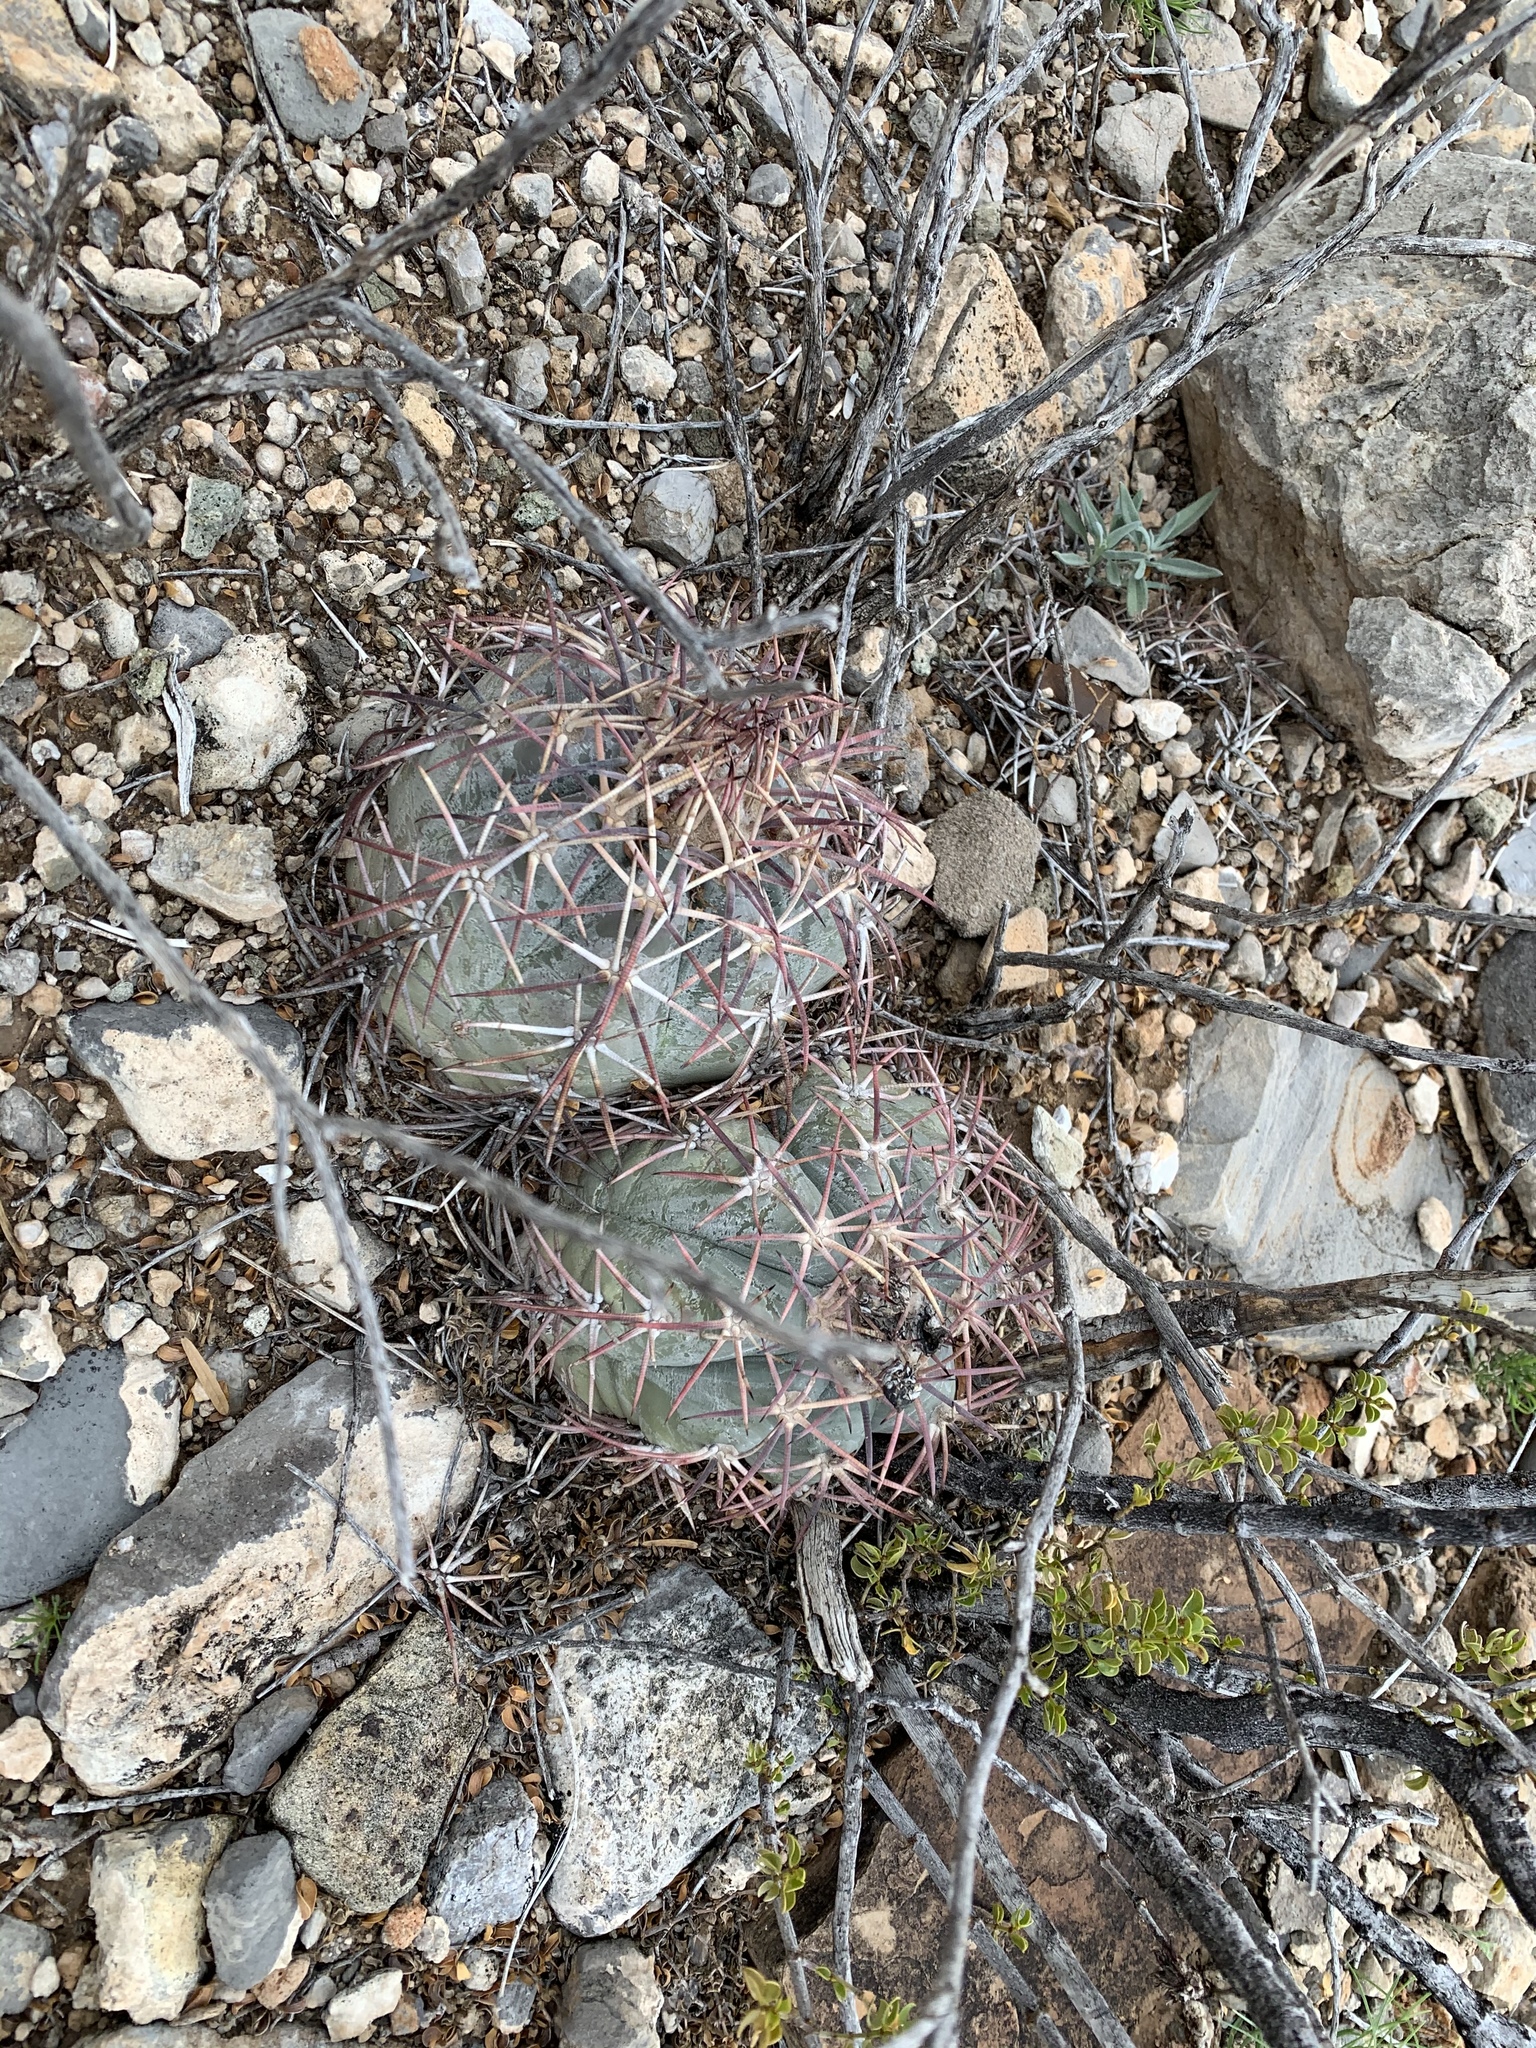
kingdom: Plantae
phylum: Tracheophyta
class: Magnoliopsida
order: Caryophyllales
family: Cactaceae
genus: Echinocactus
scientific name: Echinocactus horizonthalonius
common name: Devilshead
